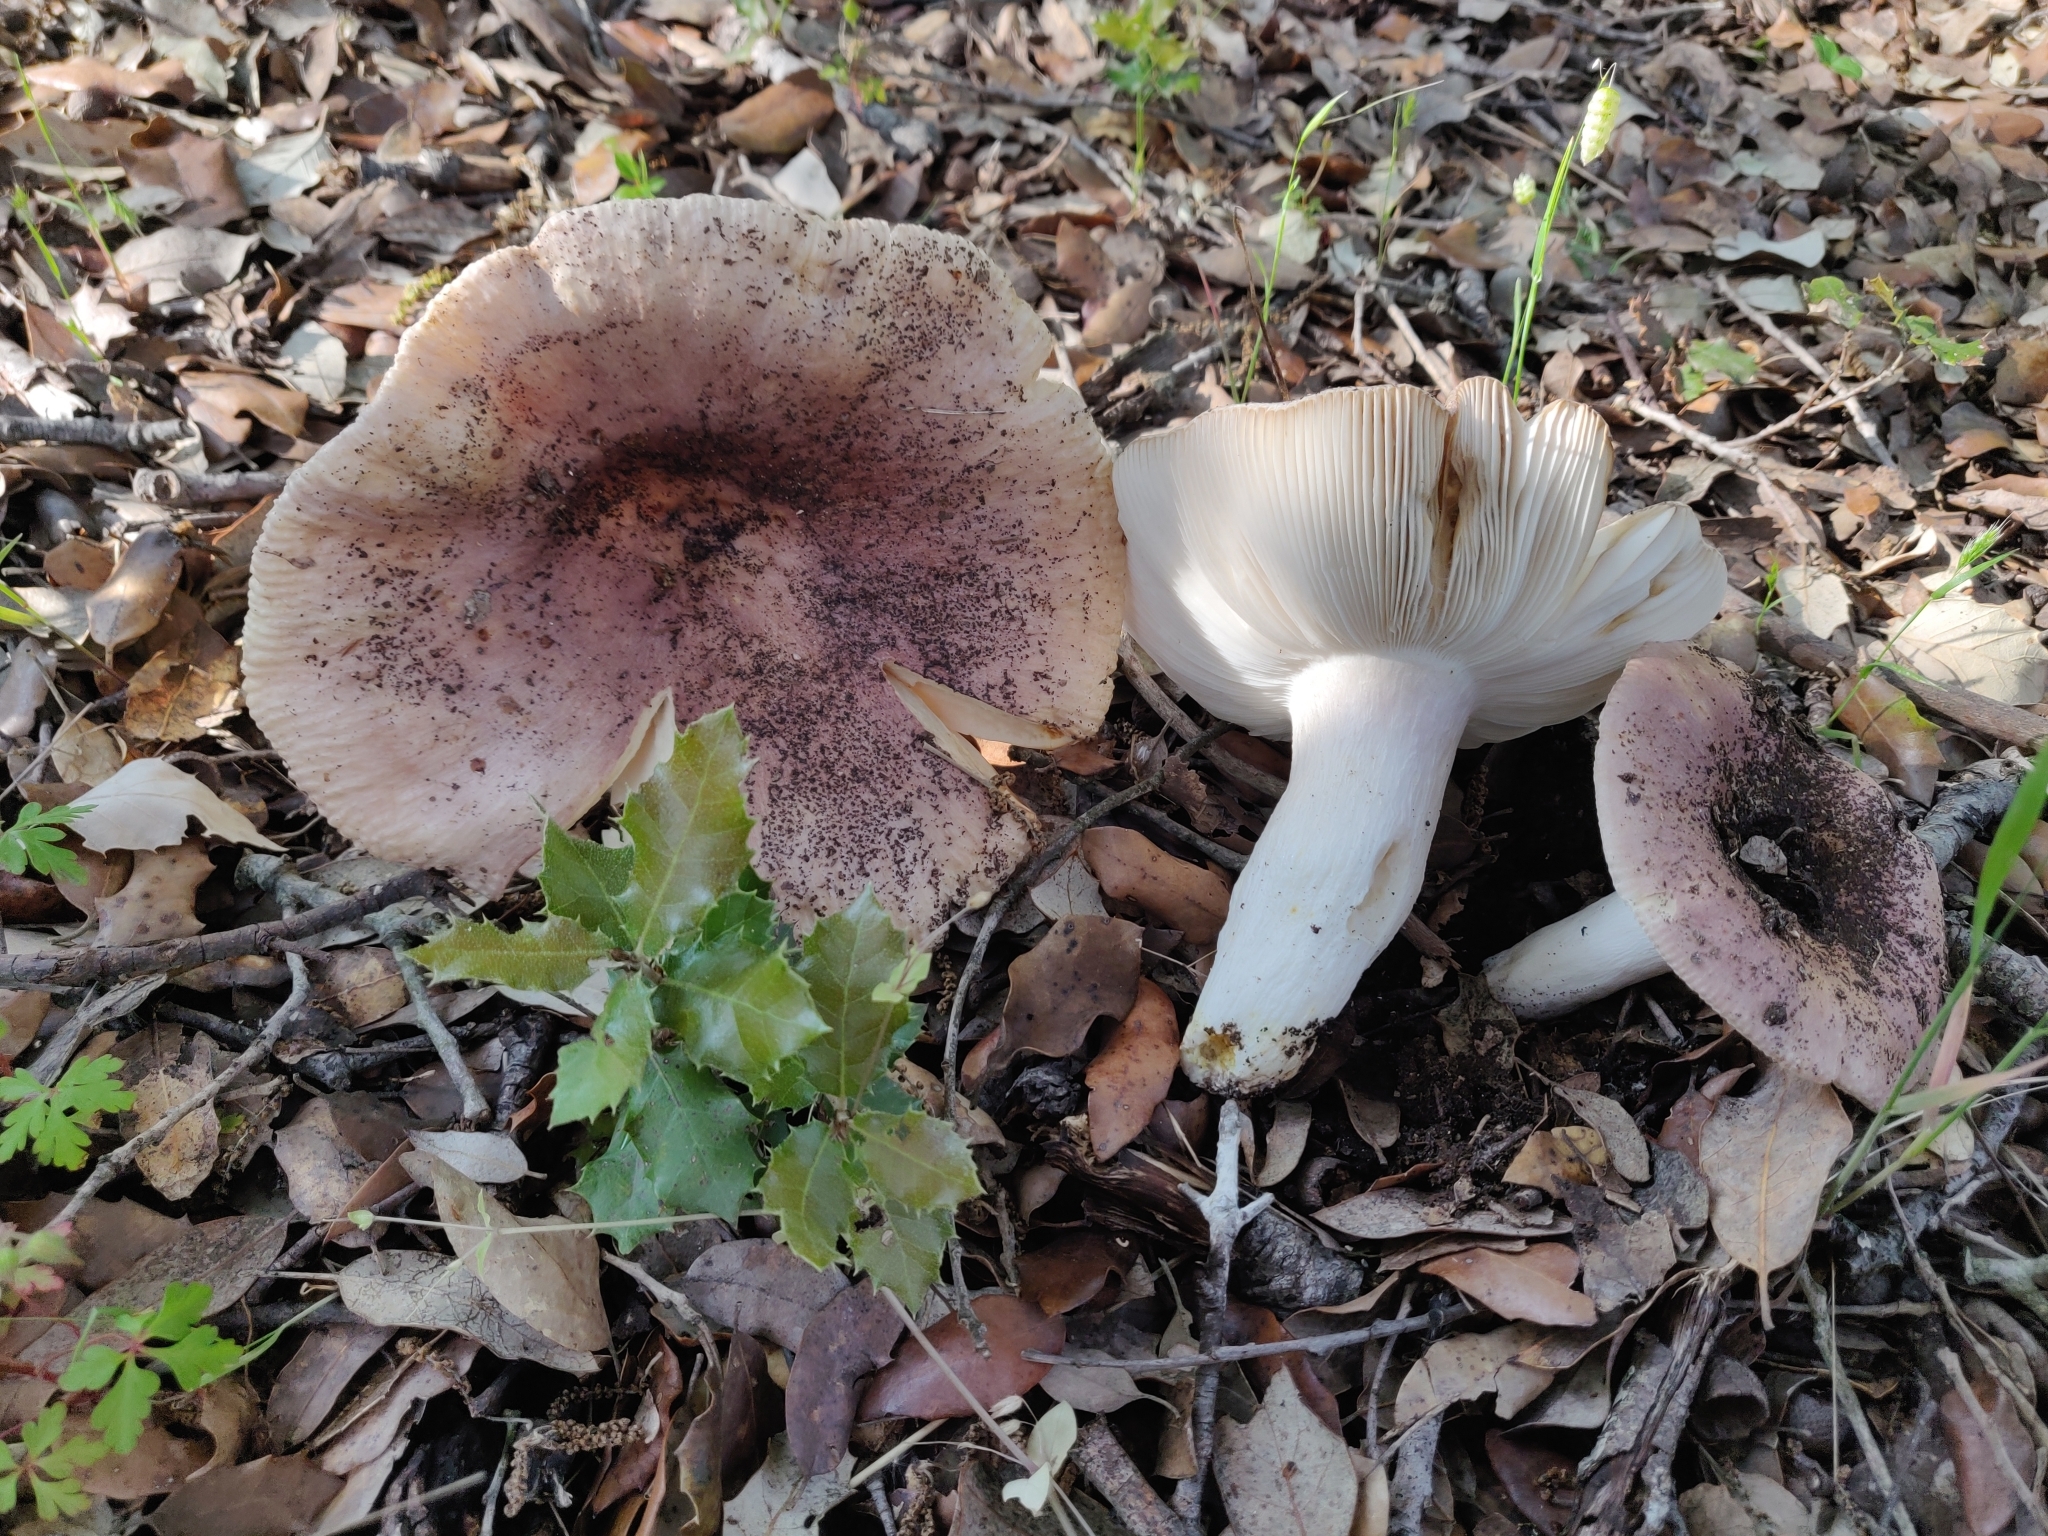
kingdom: Fungi
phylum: Basidiomycota
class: Agaricomycetes
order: Russulales
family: Russulaceae
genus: Russula
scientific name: Russula vesca
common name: Bare-toothed russula
